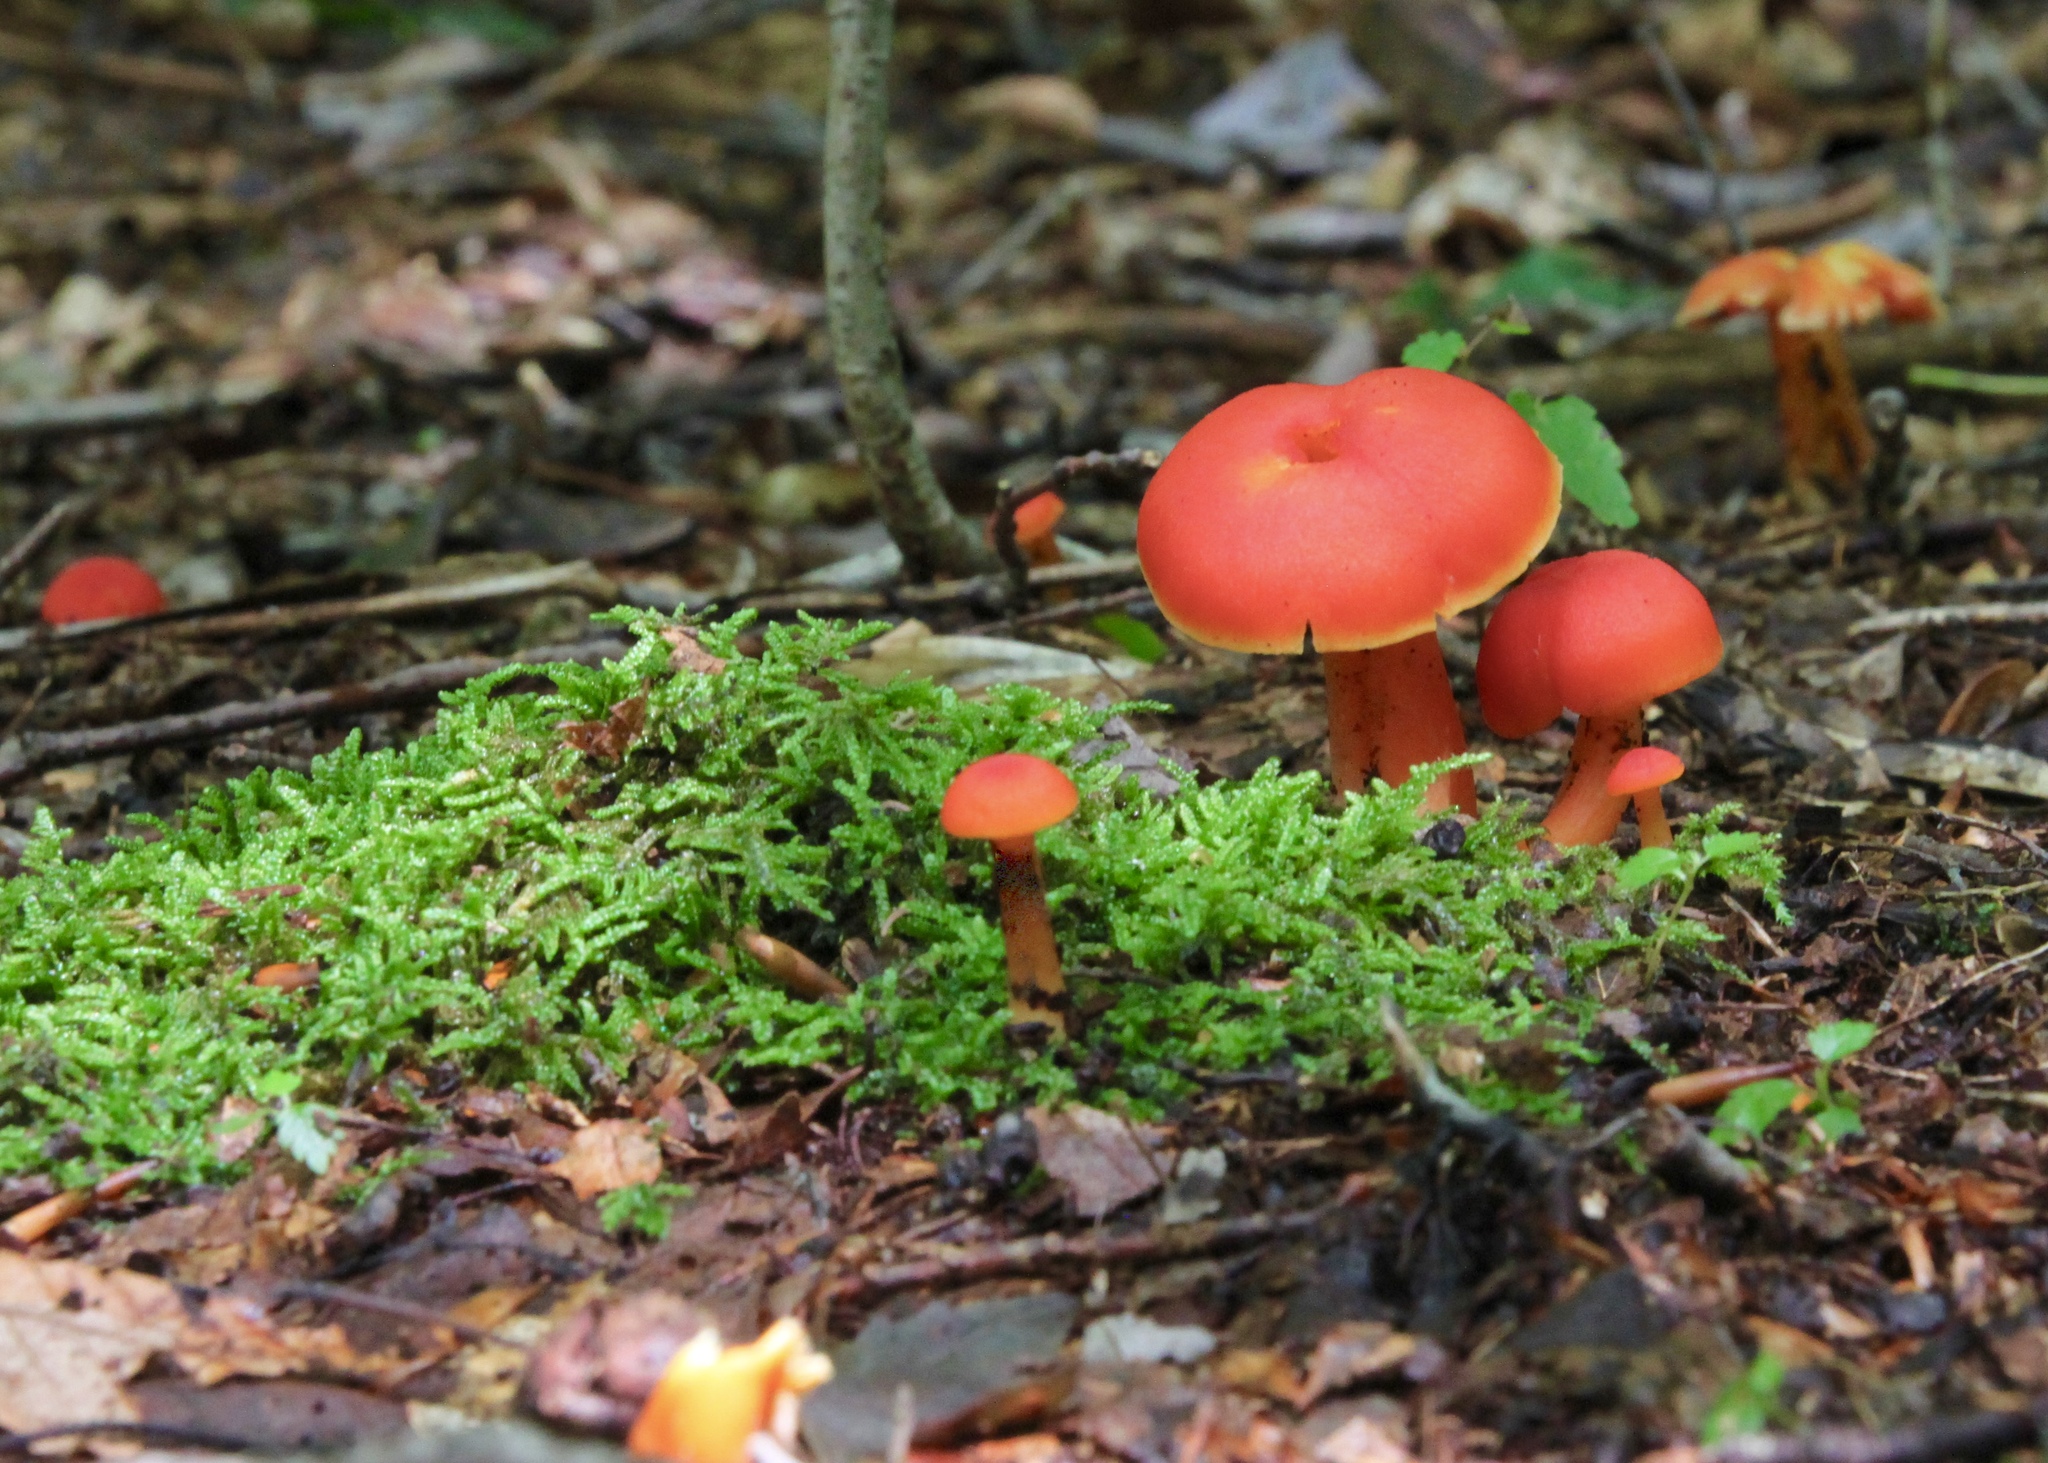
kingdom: Fungi
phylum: Basidiomycota
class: Agaricomycetes
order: Agaricales
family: Hygrophoraceae
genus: Hygrocybe
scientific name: Hygrocybe coccinea
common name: Scarlet hood
